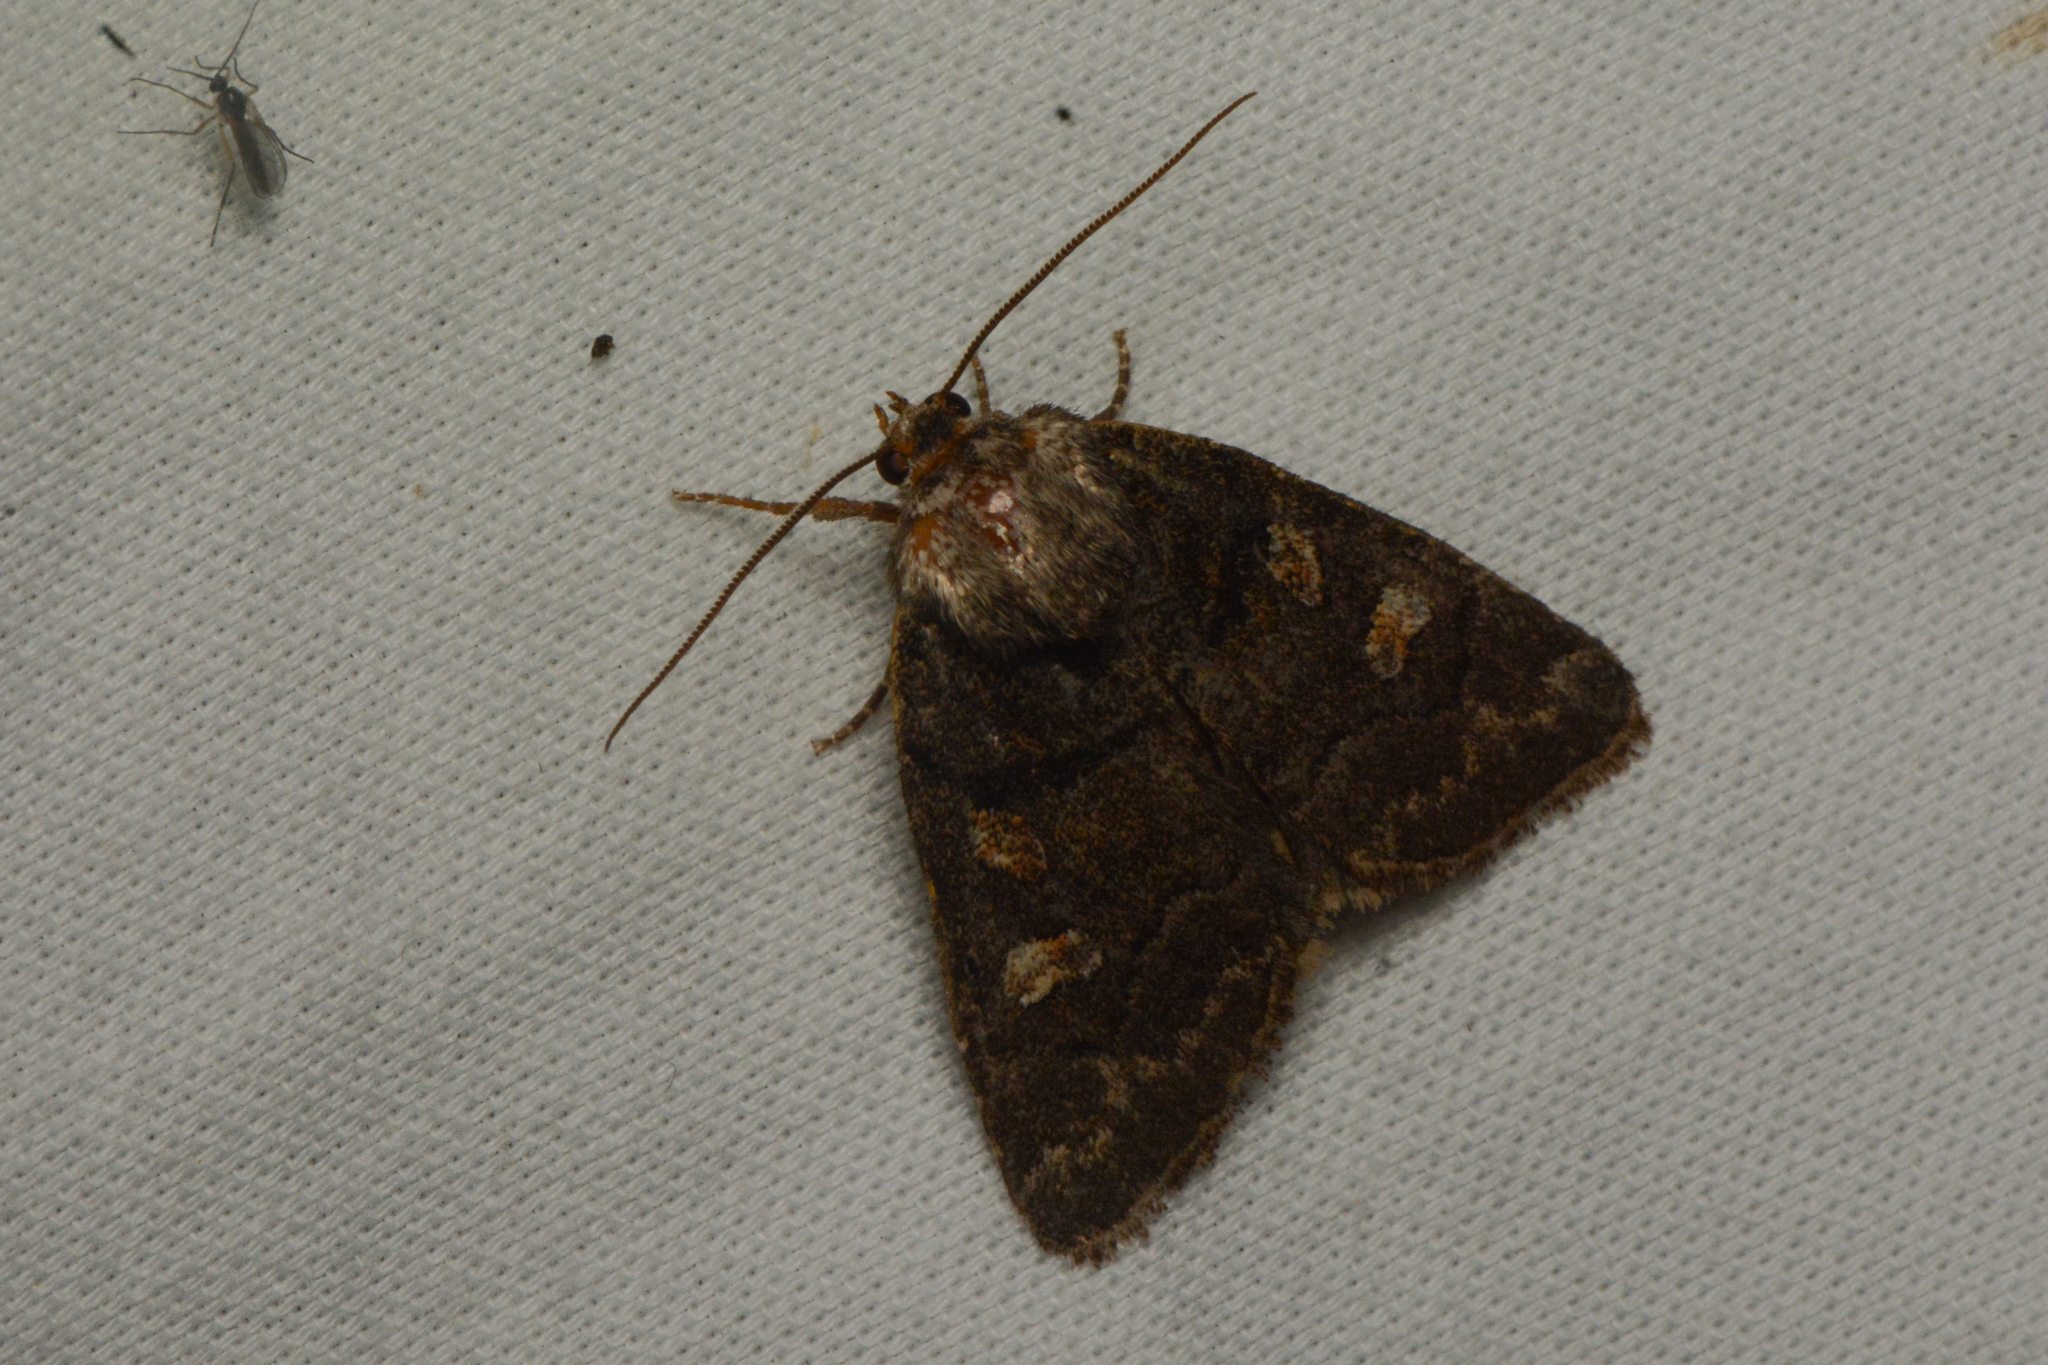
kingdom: Animalia
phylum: Arthropoda
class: Insecta
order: Lepidoptera
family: Noctuidae
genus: Cosmia
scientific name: Cosmia praeacuta
